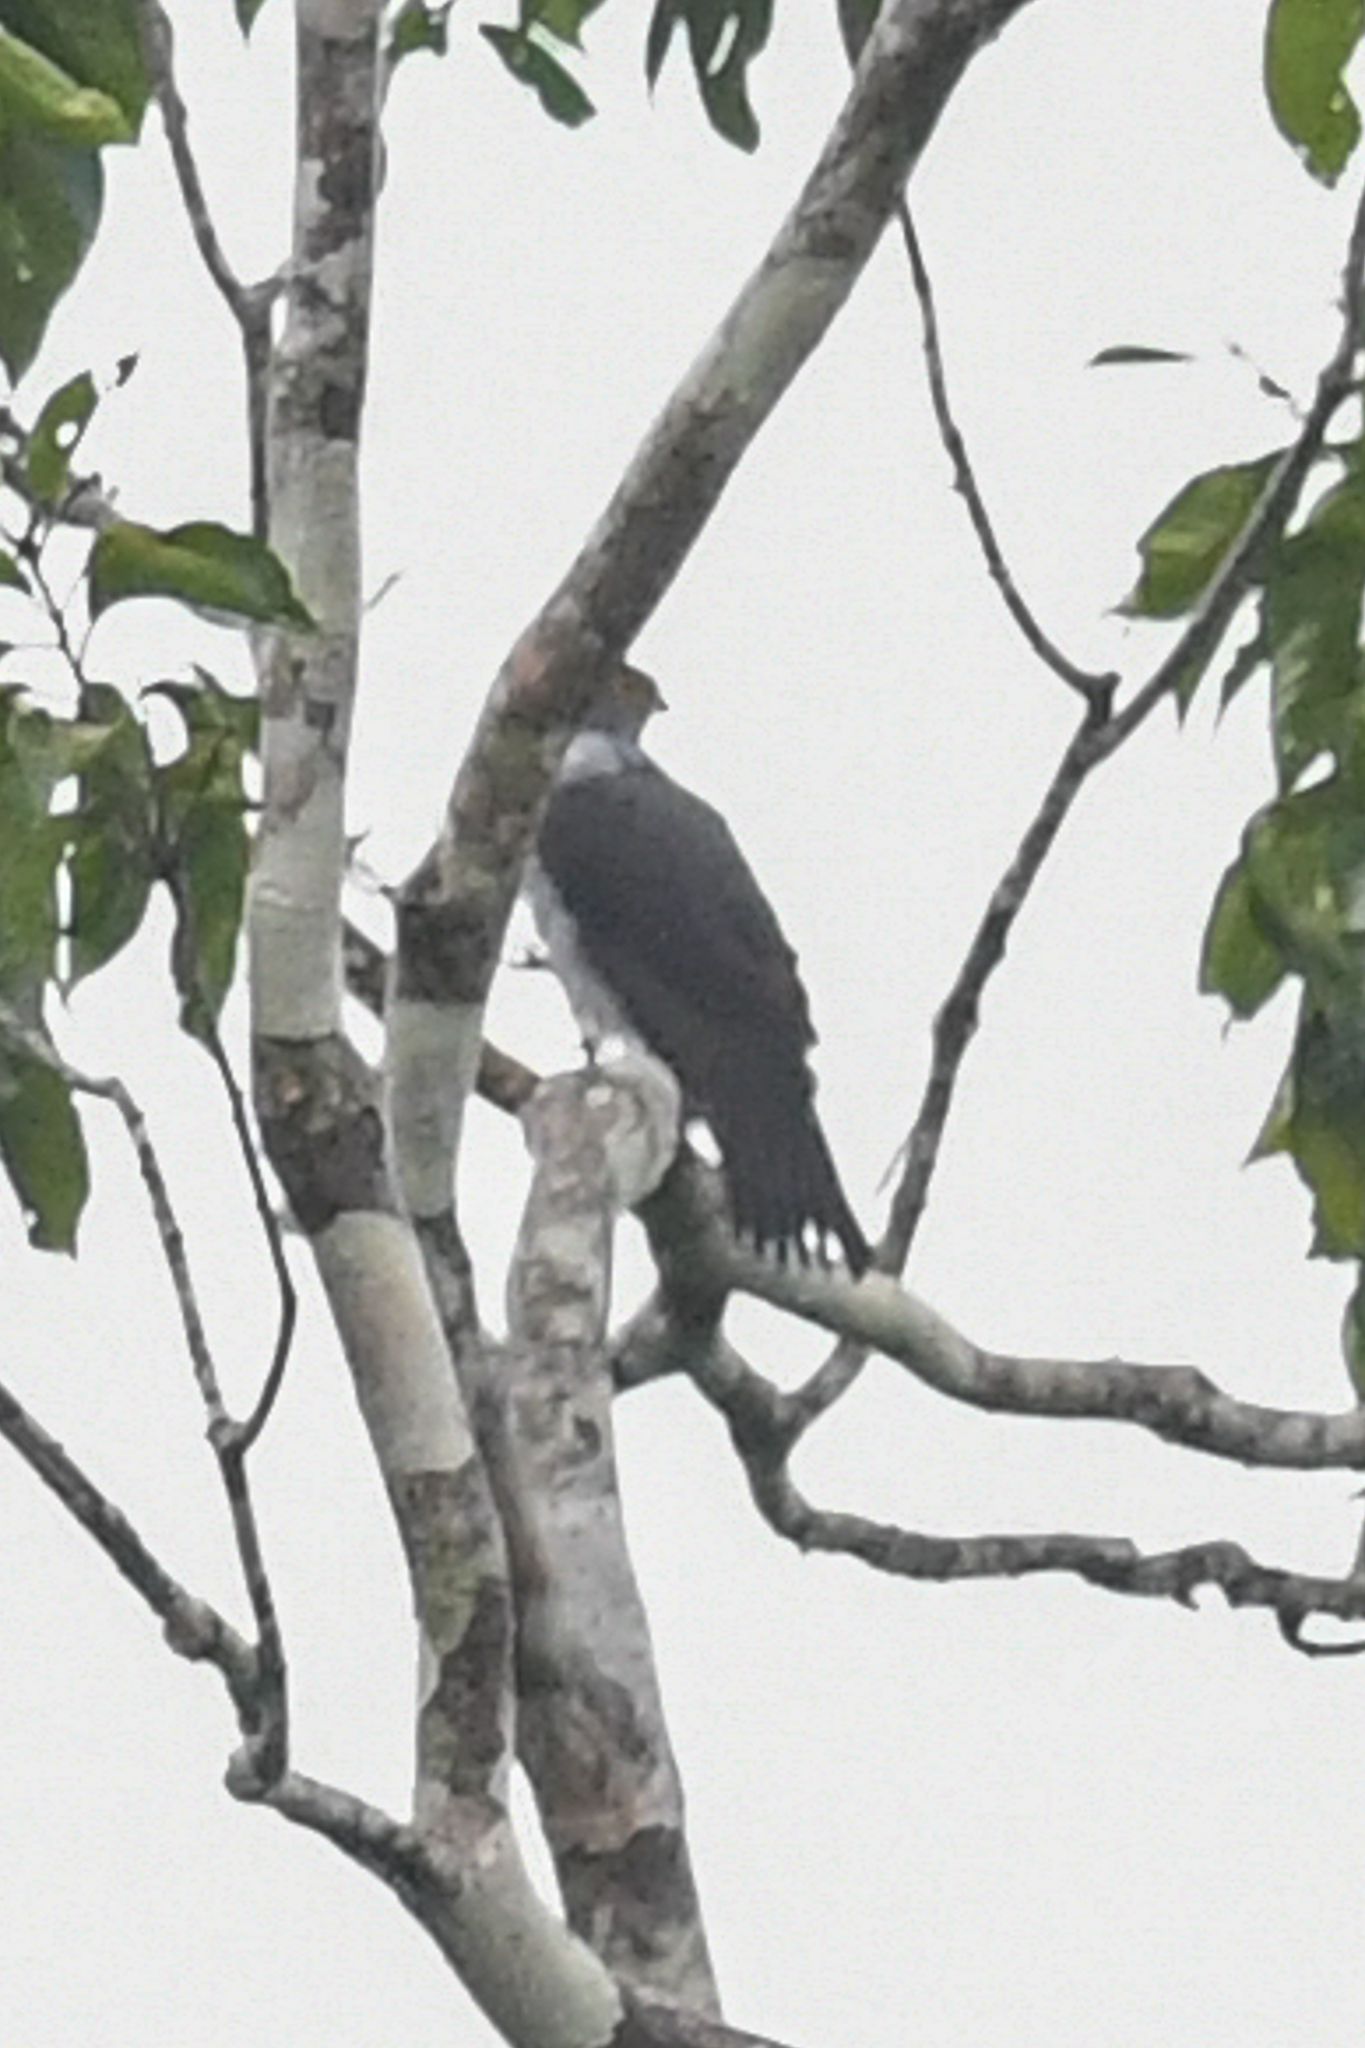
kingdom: Animalia
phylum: Chordata
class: Aves
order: Accipitriformes
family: Accipitridae
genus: Accipiter
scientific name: Accipiter bicolor
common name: Bicolored hawk
